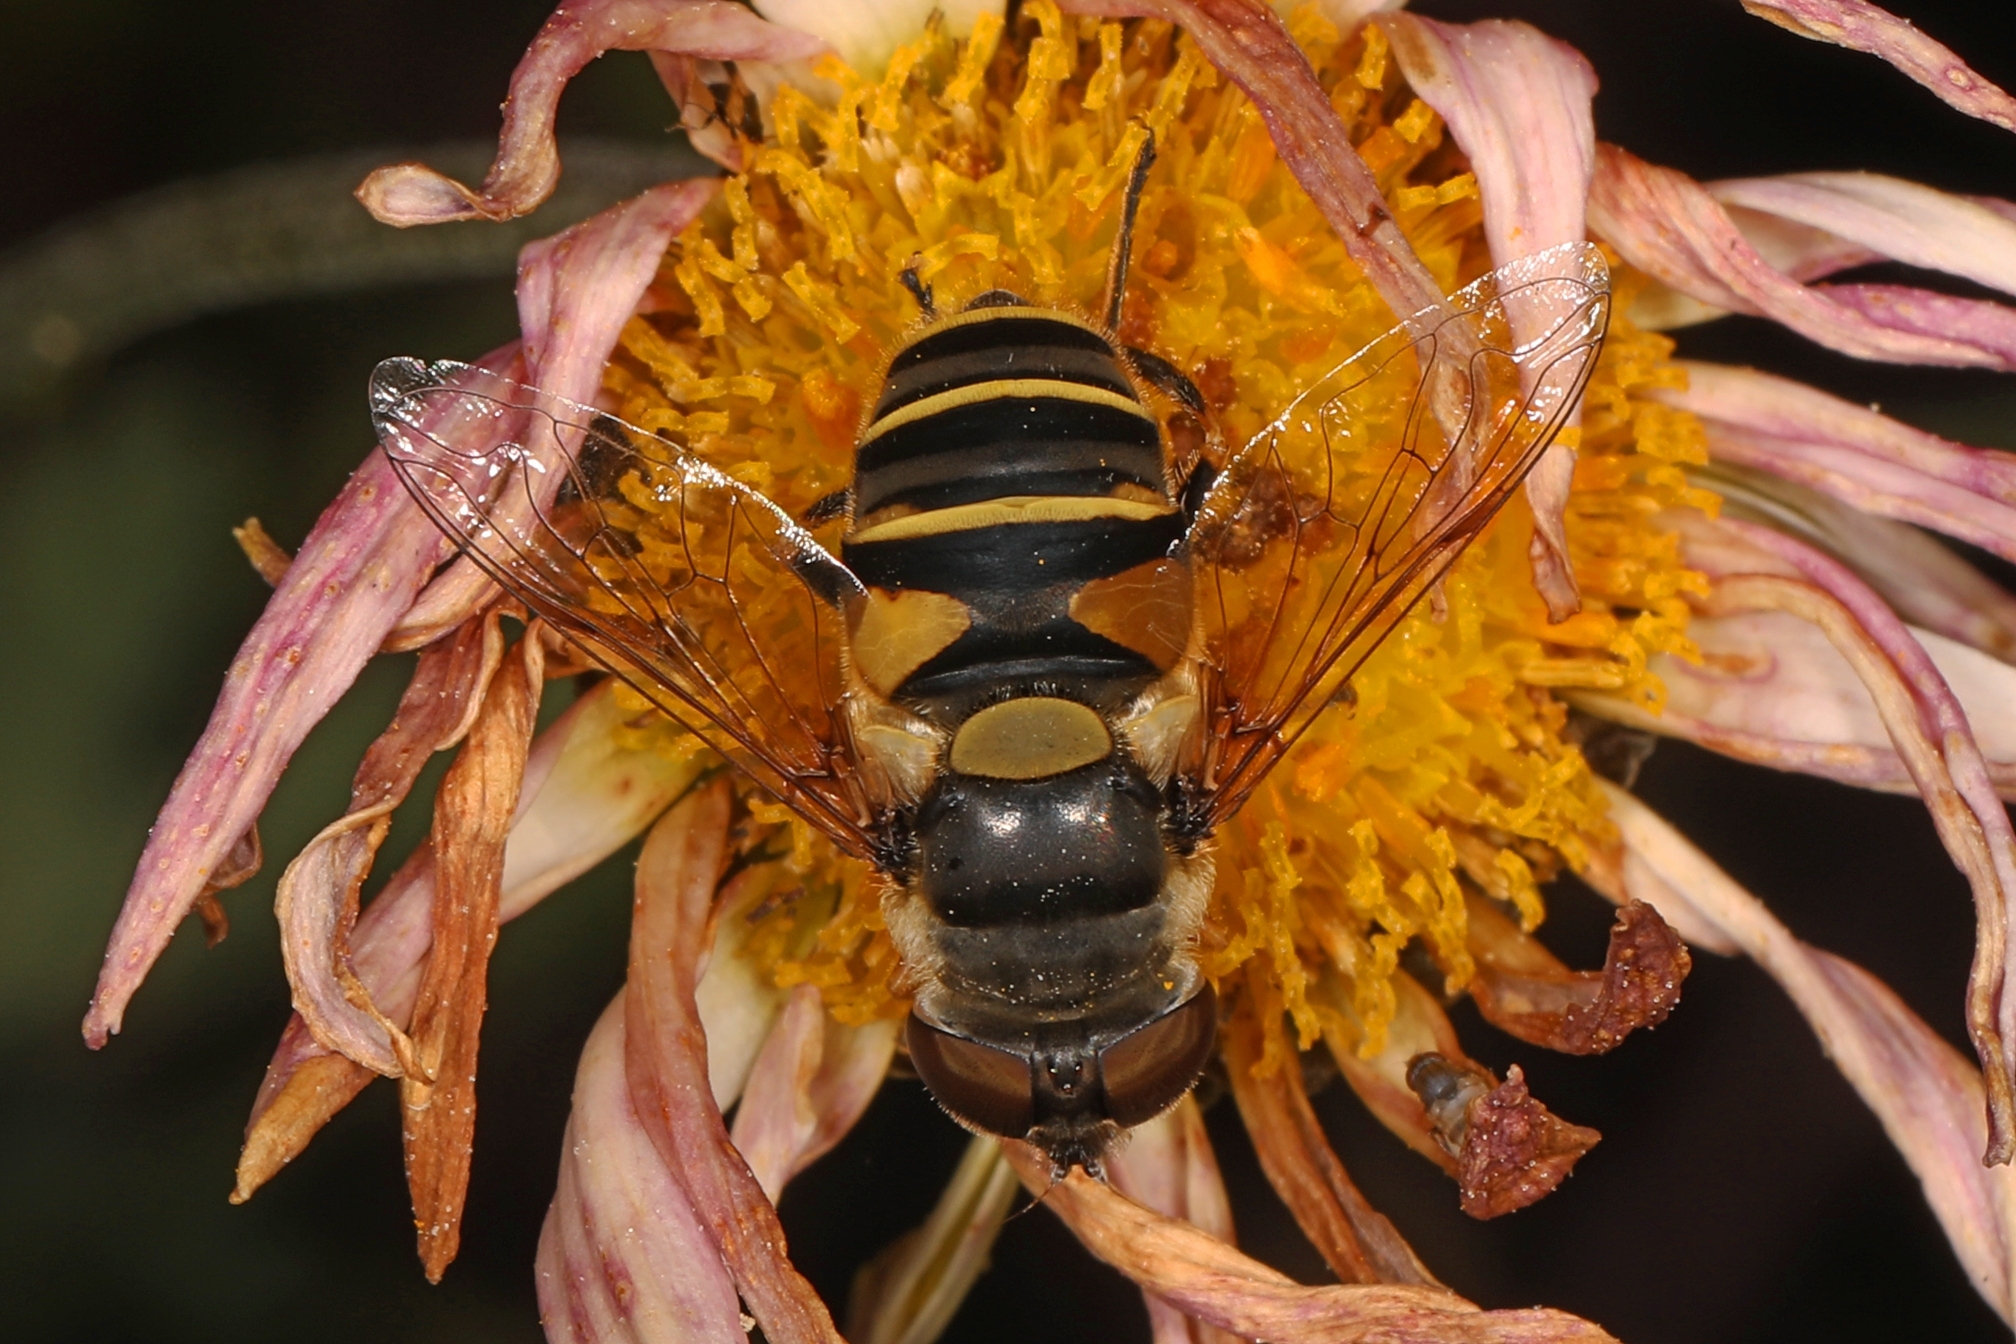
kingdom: Animalia
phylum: Arthropoda
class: Insecta
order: Diptera
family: Syrphidae
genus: Eristalis
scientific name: Eristalis transversa
